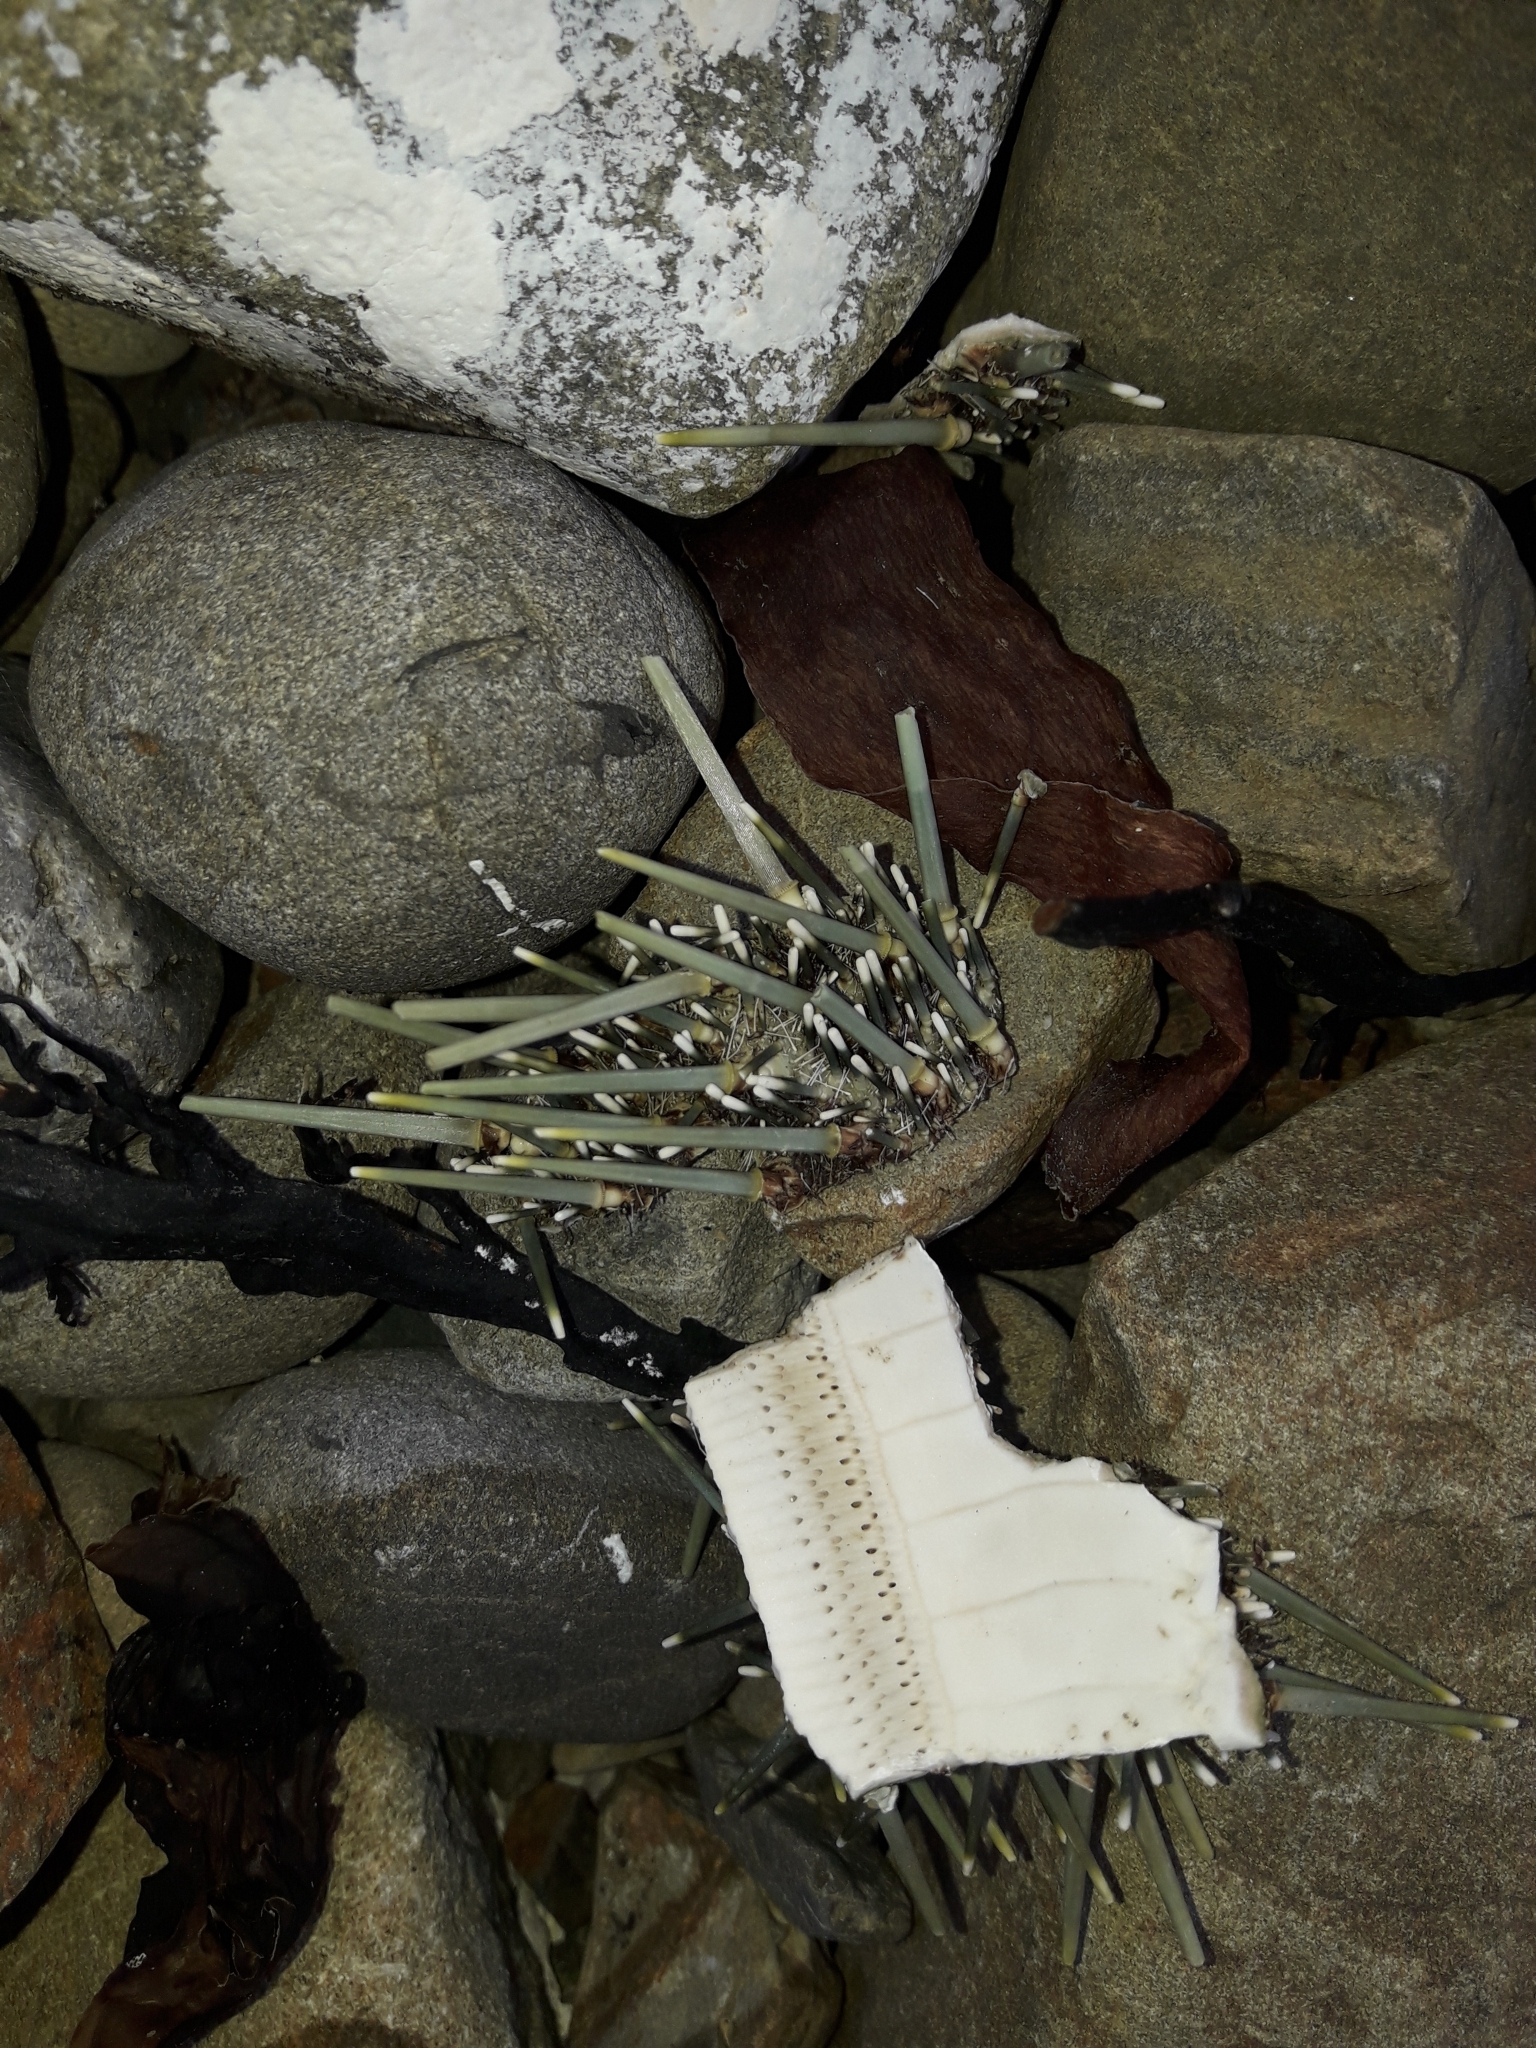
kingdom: Animalia
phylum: Echinodermata
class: Echinoidea
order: Camarodonta
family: Echinometridae
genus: Evechinus
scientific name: Evechinus chloroticus
